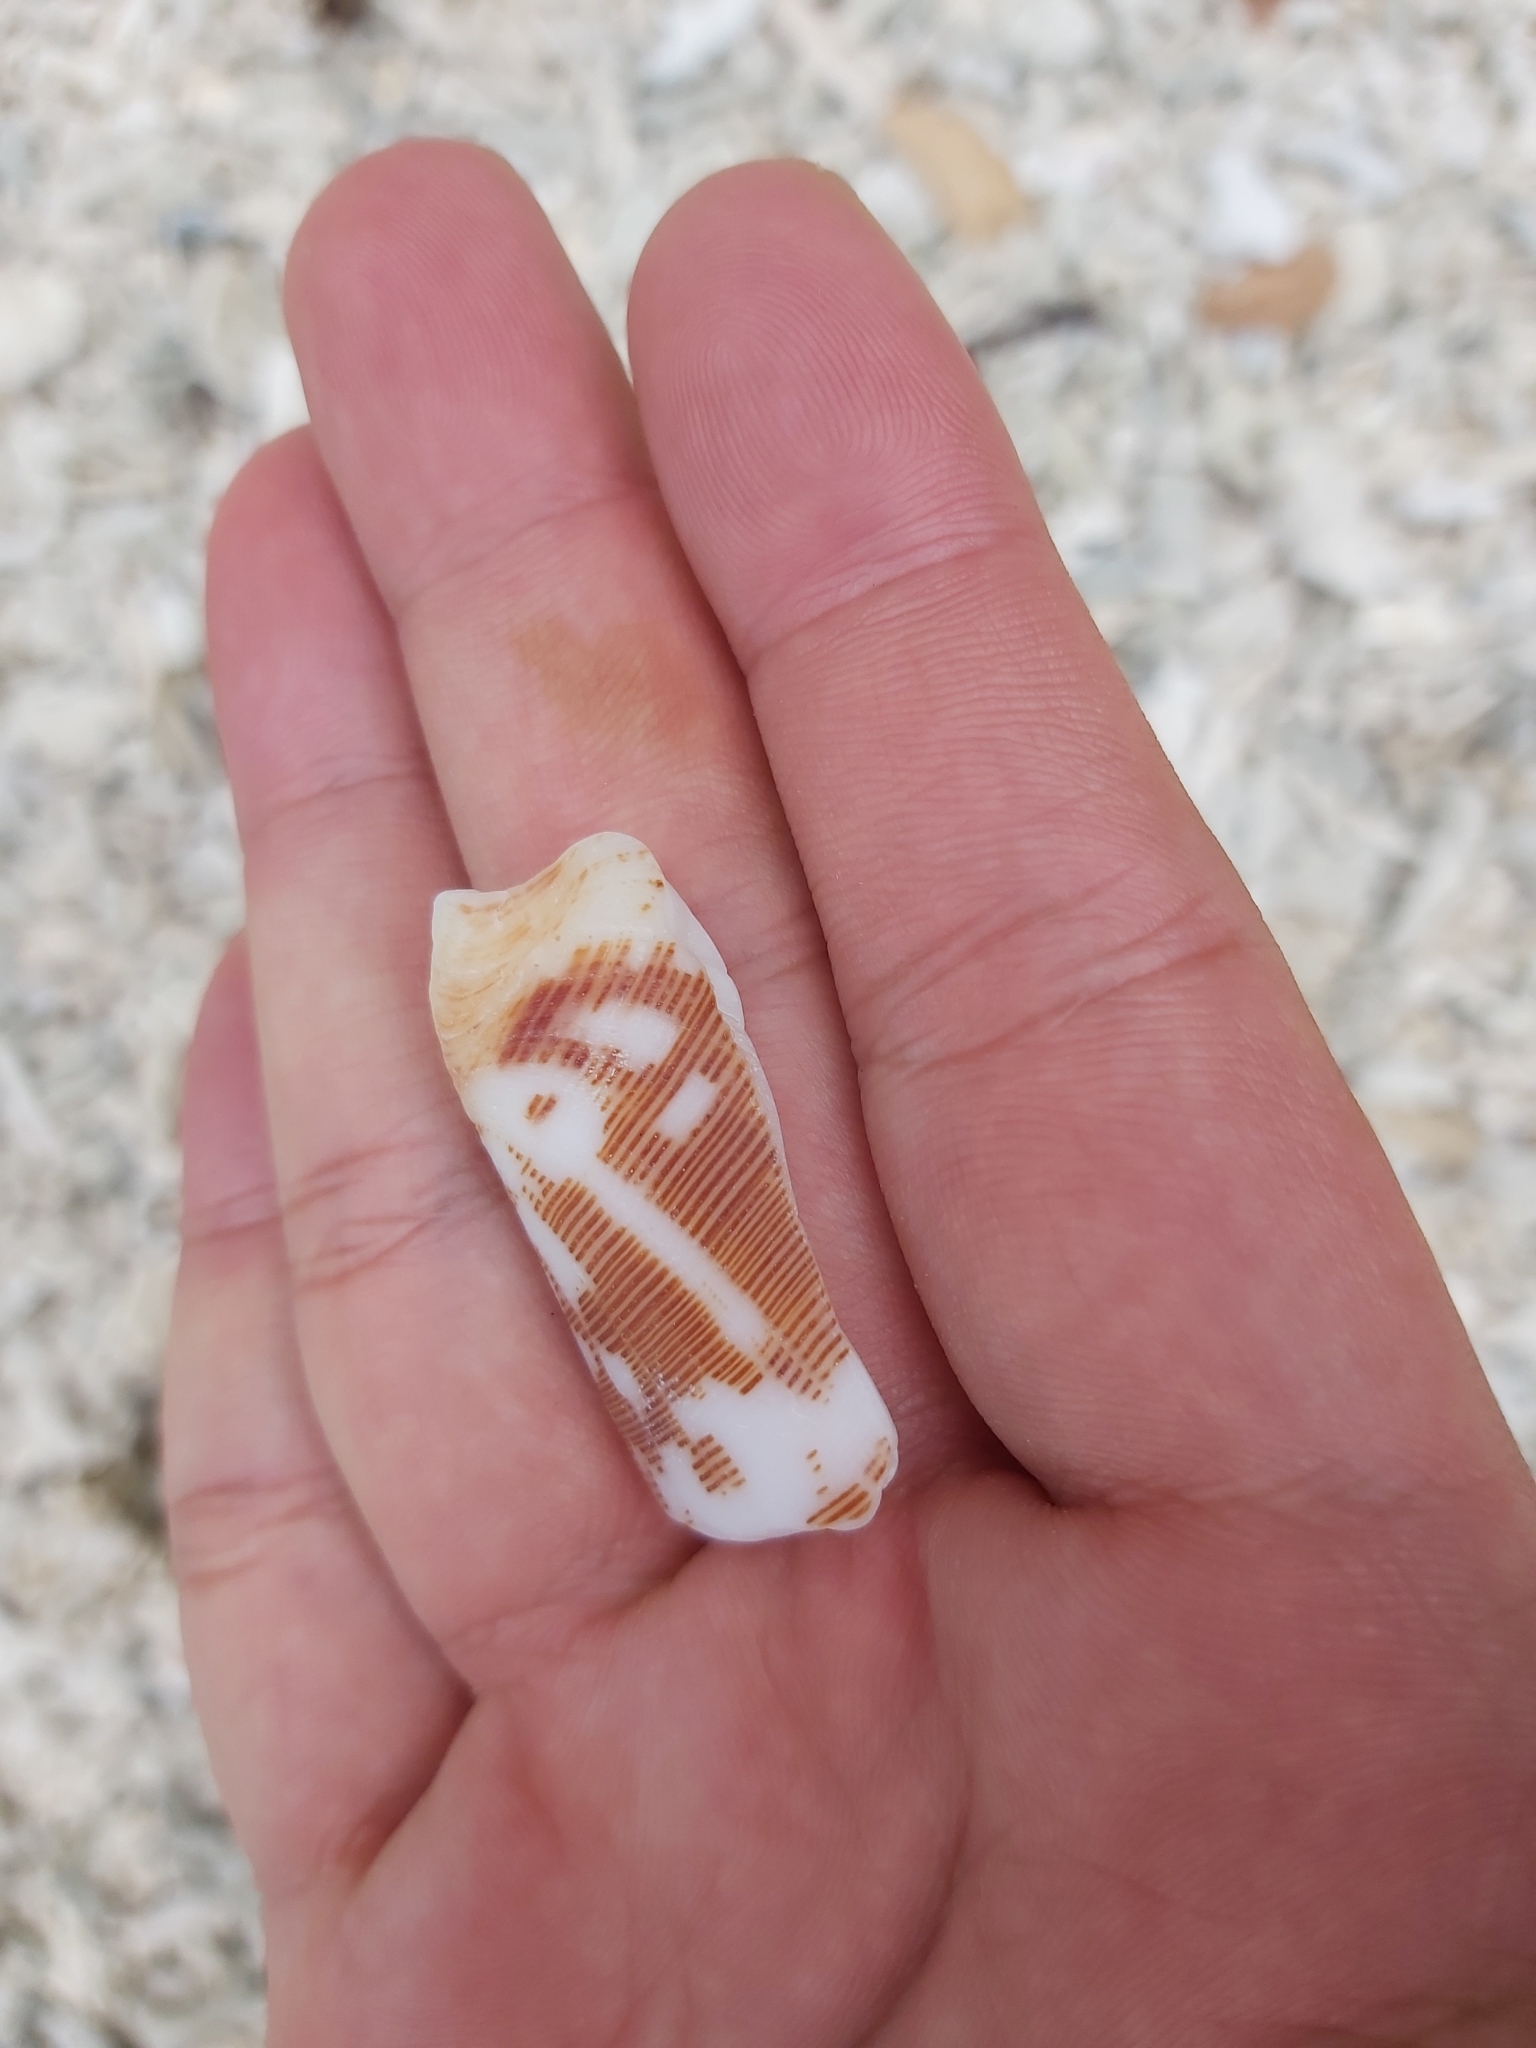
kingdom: Animalia
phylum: Mollusca
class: Gastropoda
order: Neogastropoda
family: Conidae
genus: Conus
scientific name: Conus striatus
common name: Striated cone
